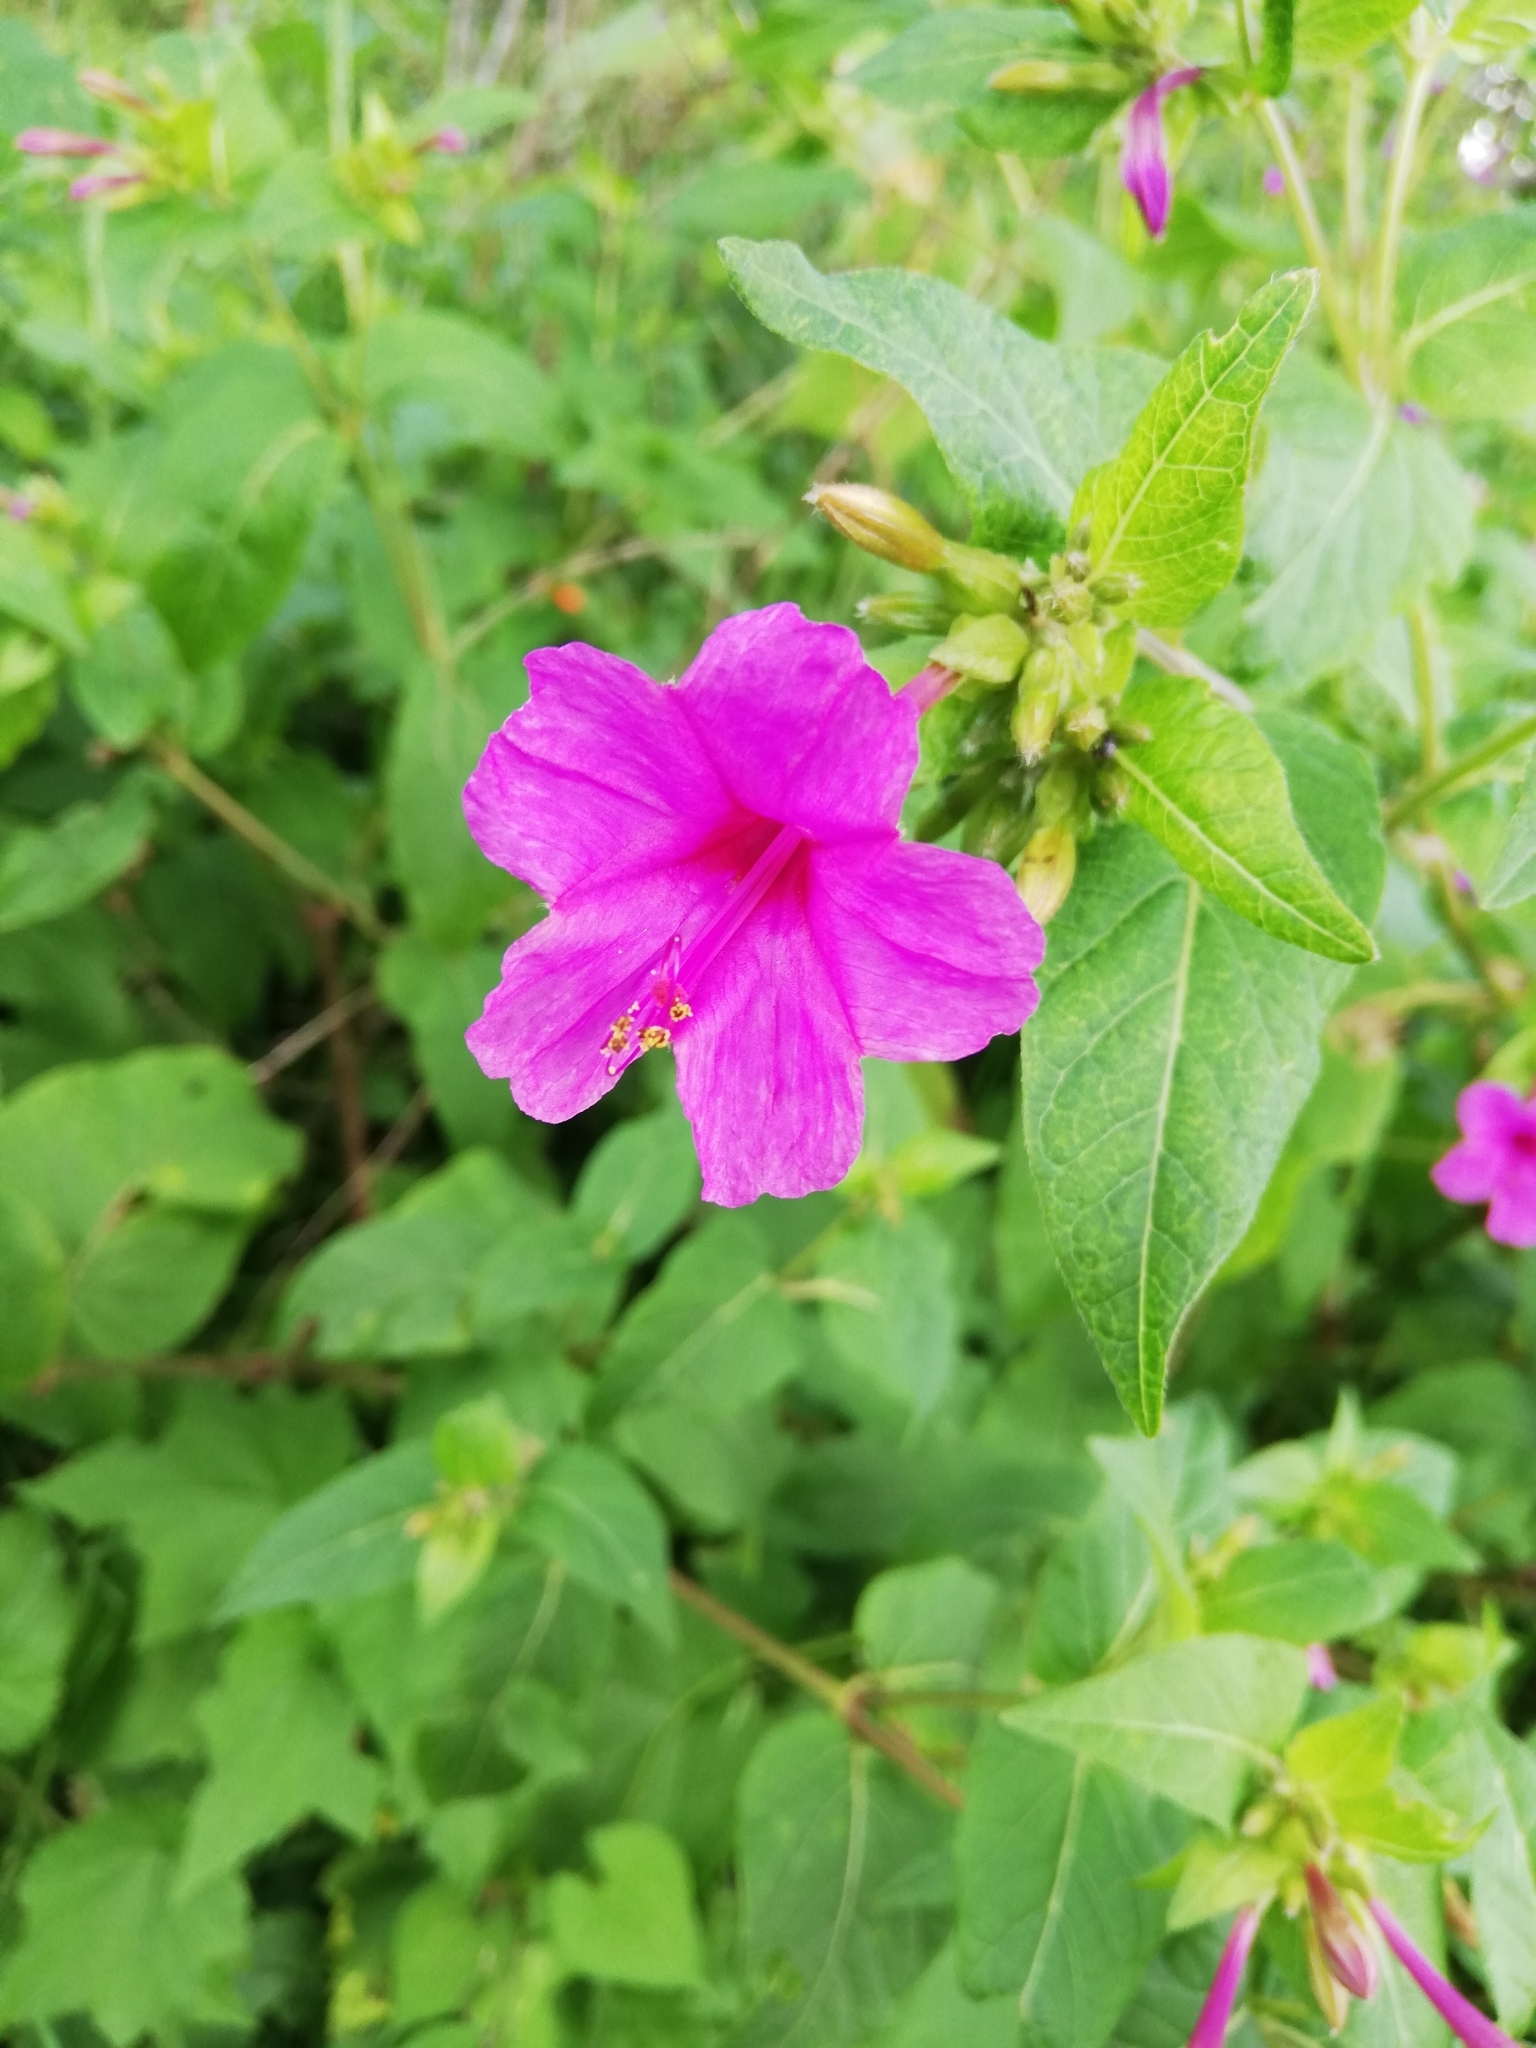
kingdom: Plantae
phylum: Tracheophyta
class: Magnoliopsida
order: Caryophyllales
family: Nyctaginaceae
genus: Mirabilis
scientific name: Mirabilis jalapa
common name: Marvel-of-peru
